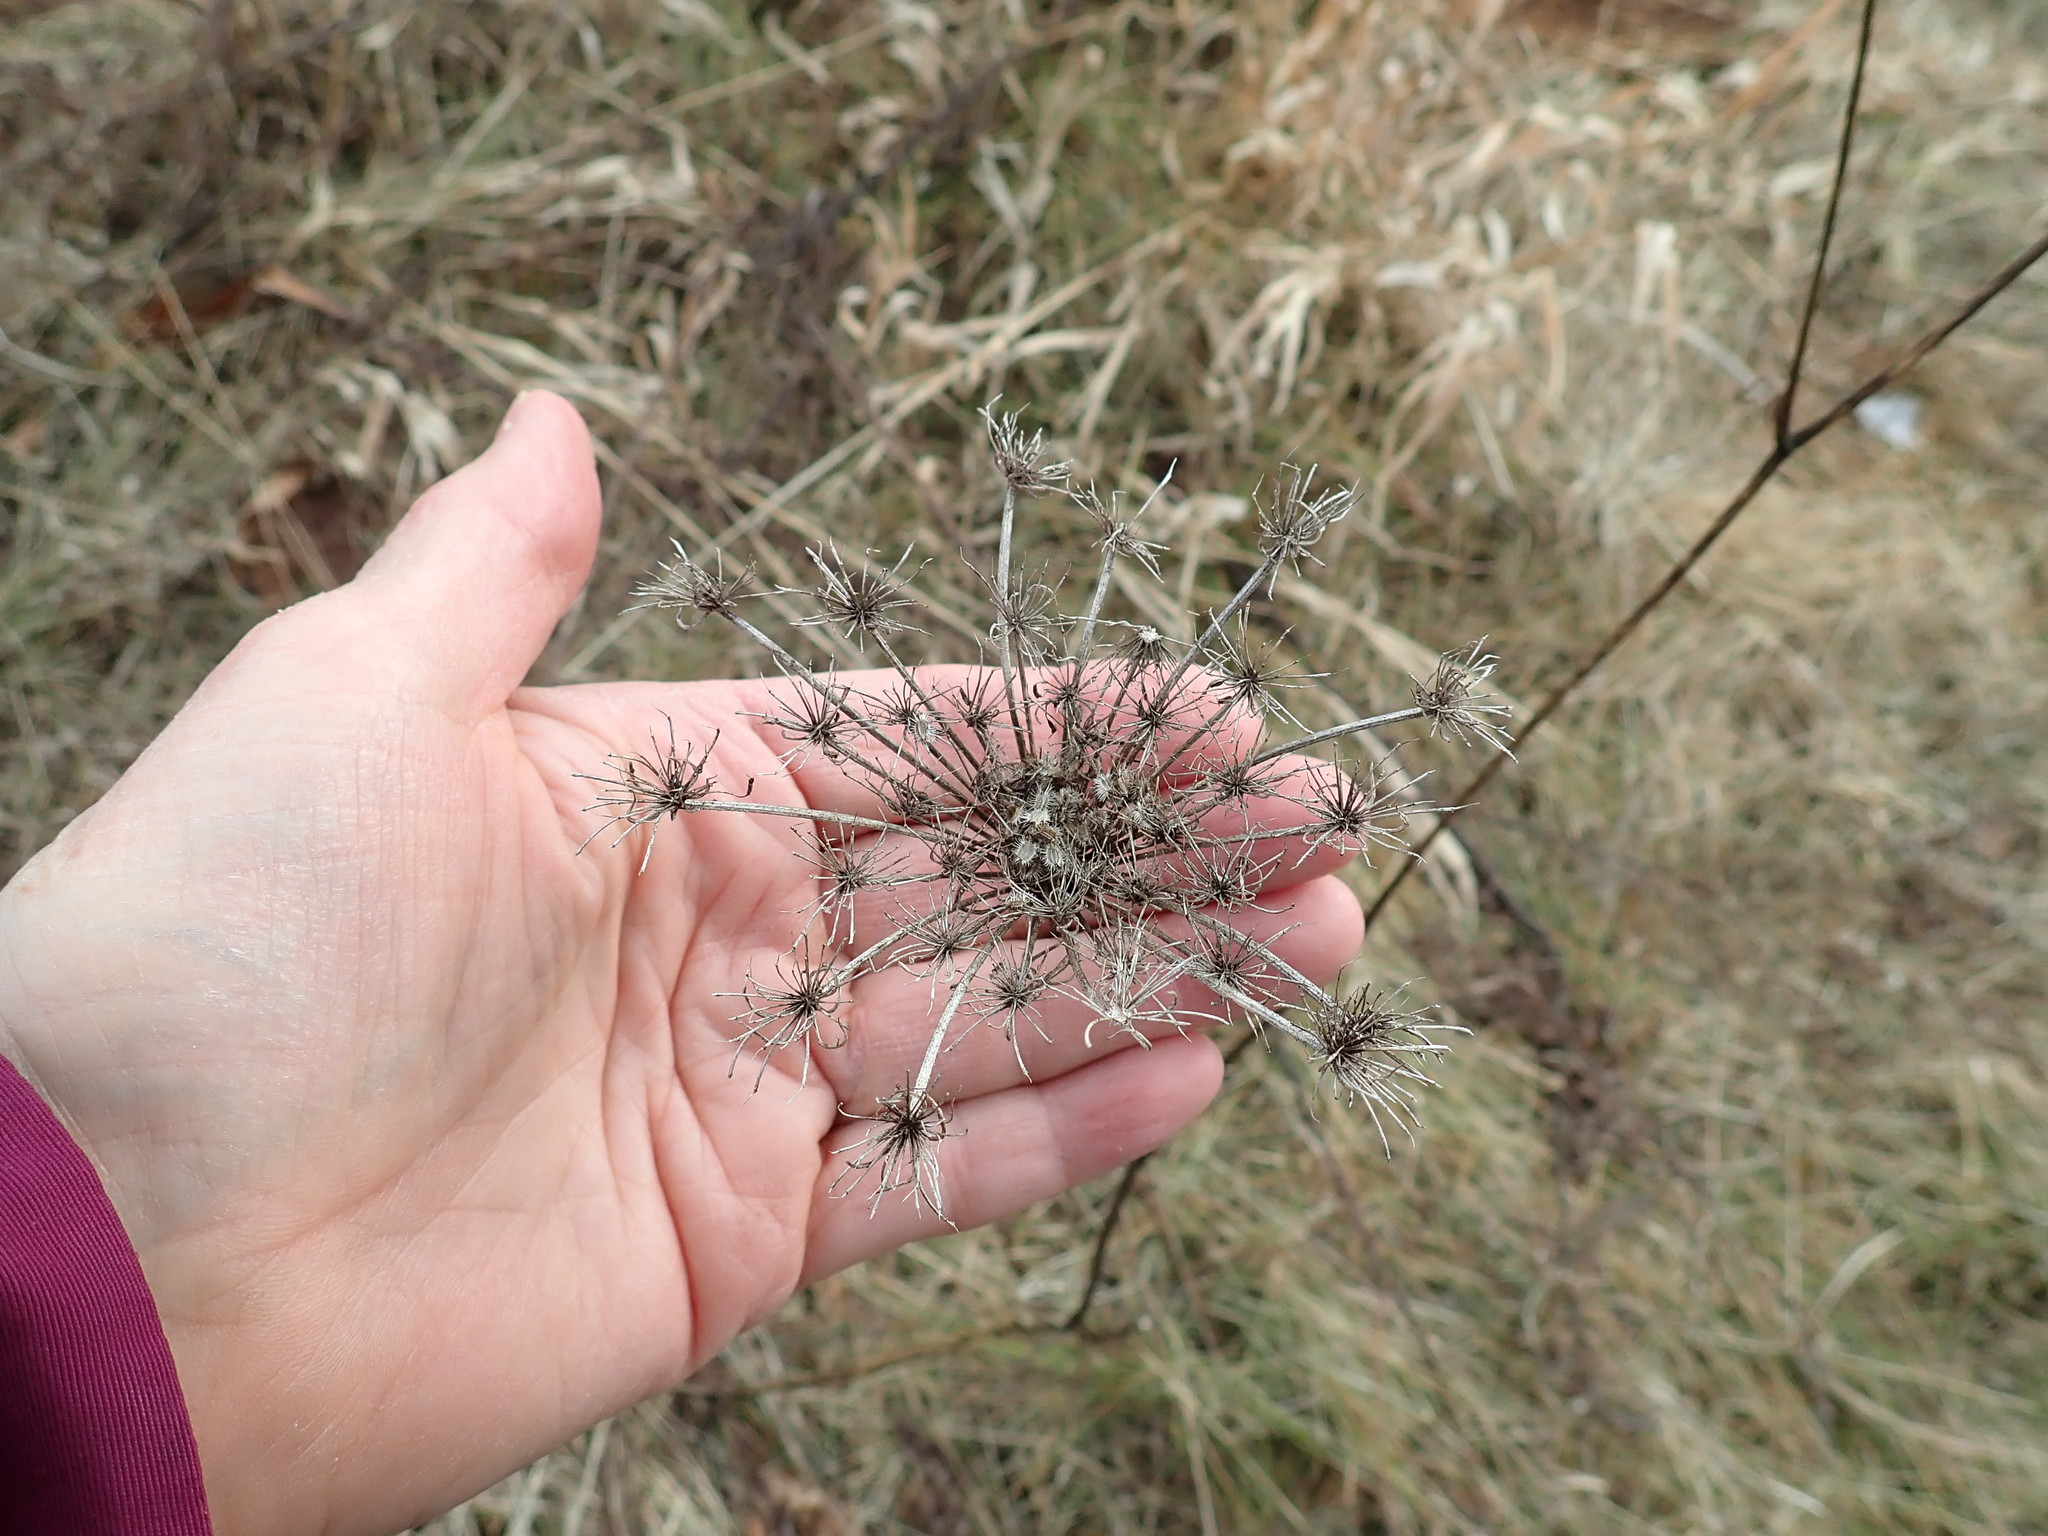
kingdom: Plantae
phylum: Tracheophyta
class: Magnoliopsida
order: Apiales
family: Apiaceae
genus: Daucus
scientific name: Daucus carota
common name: Wild carrot
